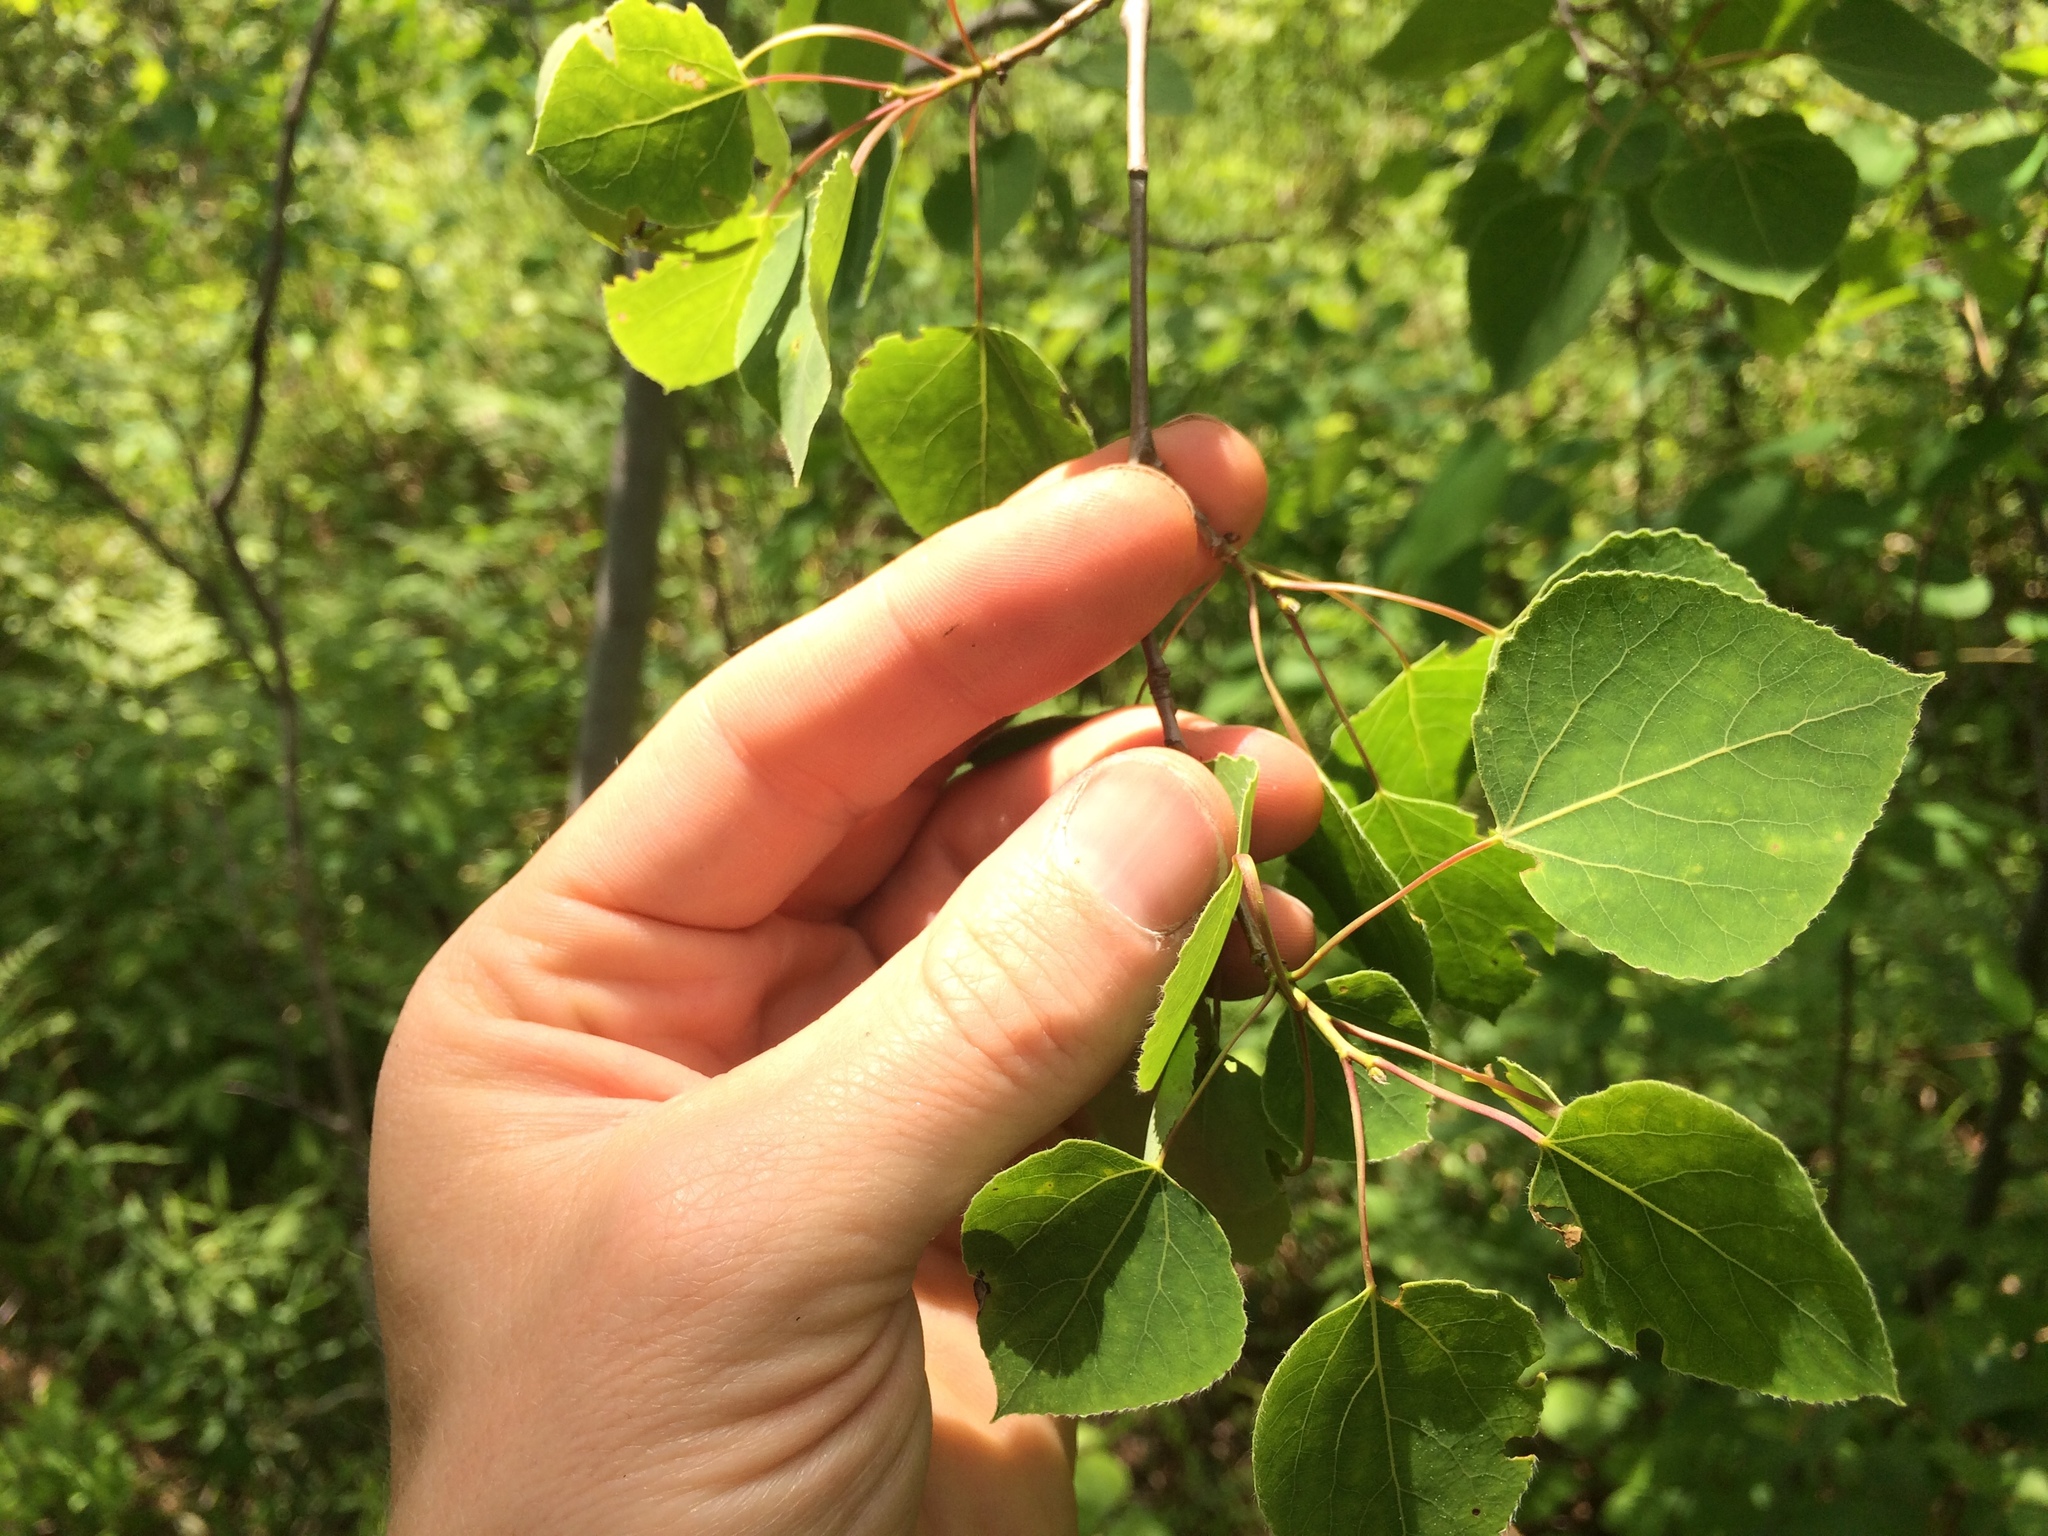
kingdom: Plantae
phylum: Tracheophyta
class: Magnoliopsida
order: Malpighiales
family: Salicaceae
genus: Populus
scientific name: Populus tremuloides
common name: Quaking aspen
